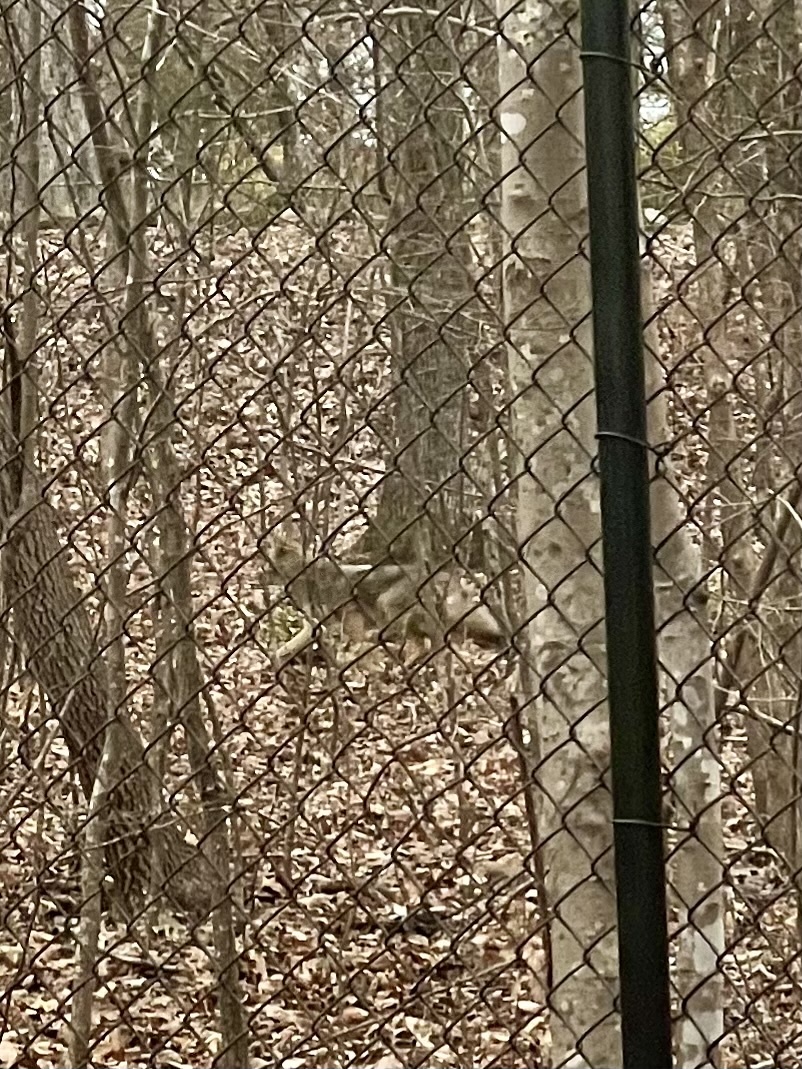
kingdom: Animalia
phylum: Chordata
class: Mammalia
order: Carnivora
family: Canidae
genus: Canis
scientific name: Canis latrans
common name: Coyote
